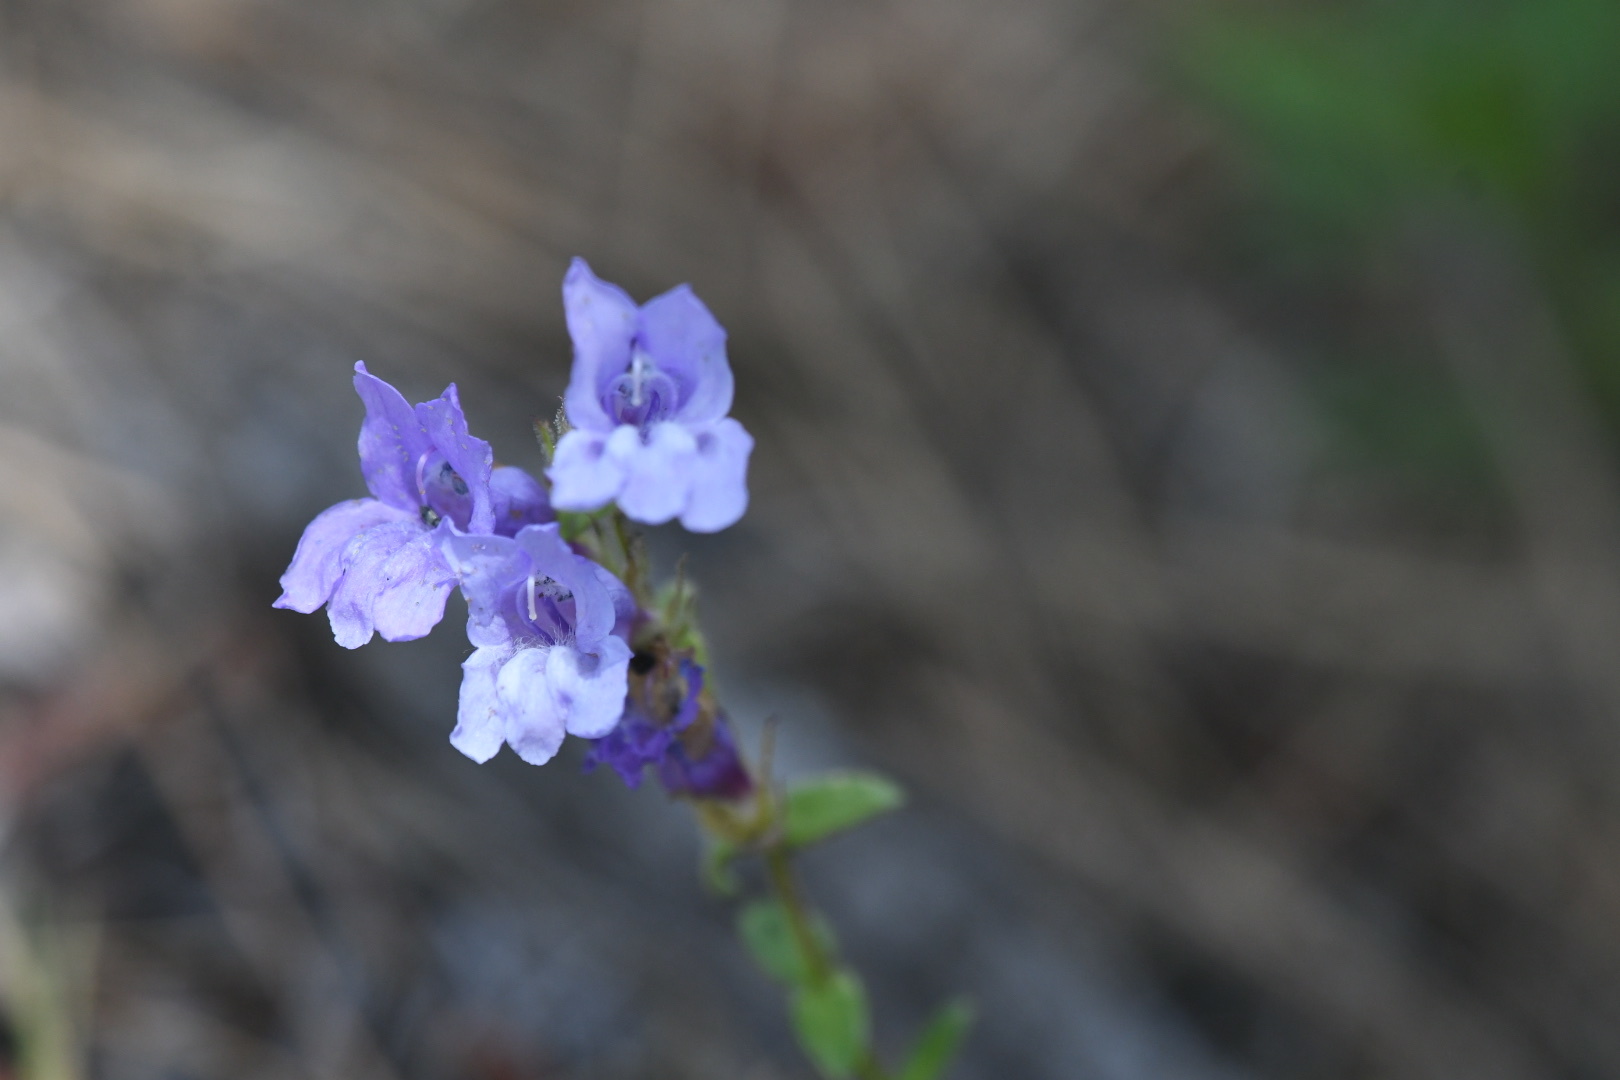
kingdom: Plantae
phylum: Tracheophyta
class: Magnoliopsida
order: Lamiales
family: Plantaginaceae
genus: Penstemon
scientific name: Penstemon fruticosus
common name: Bush penstemon
